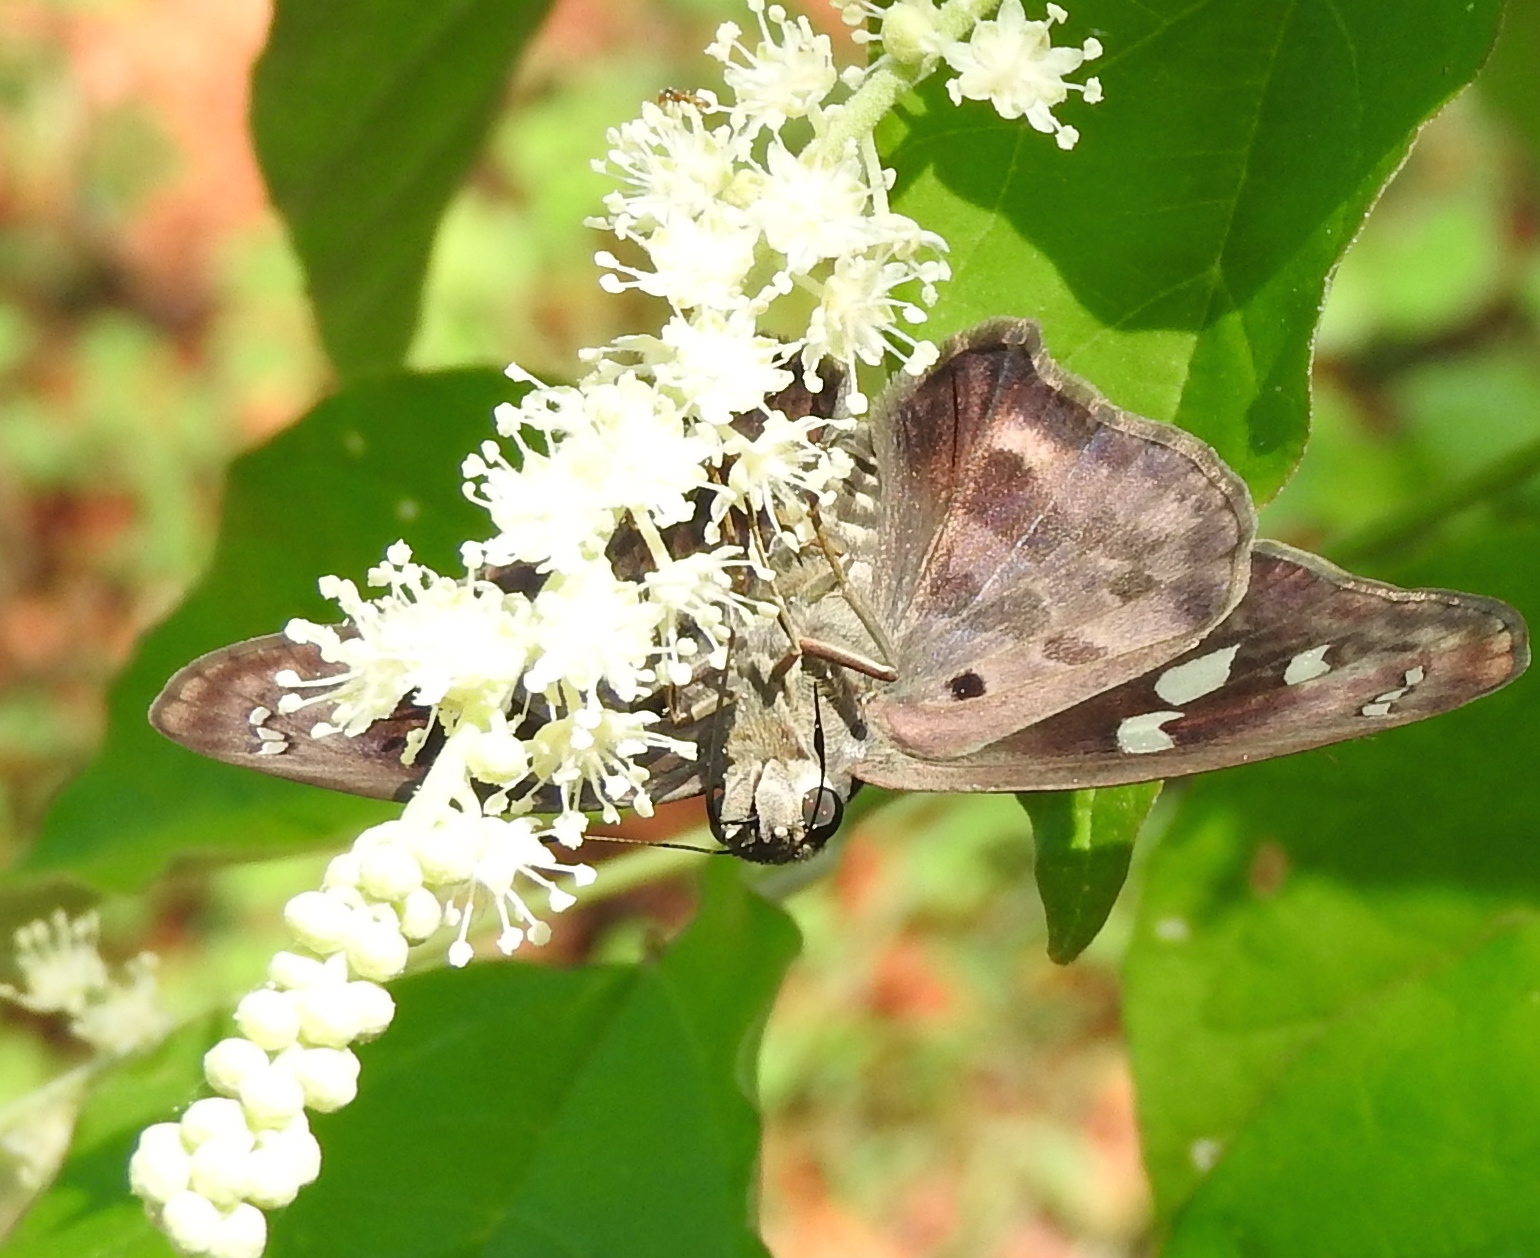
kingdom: Animalia
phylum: Arthropoda
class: Insecta
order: Lepidoptera
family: Hesperiidae
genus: Polygonus
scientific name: Polygonus leo
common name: Hammoch skipper
